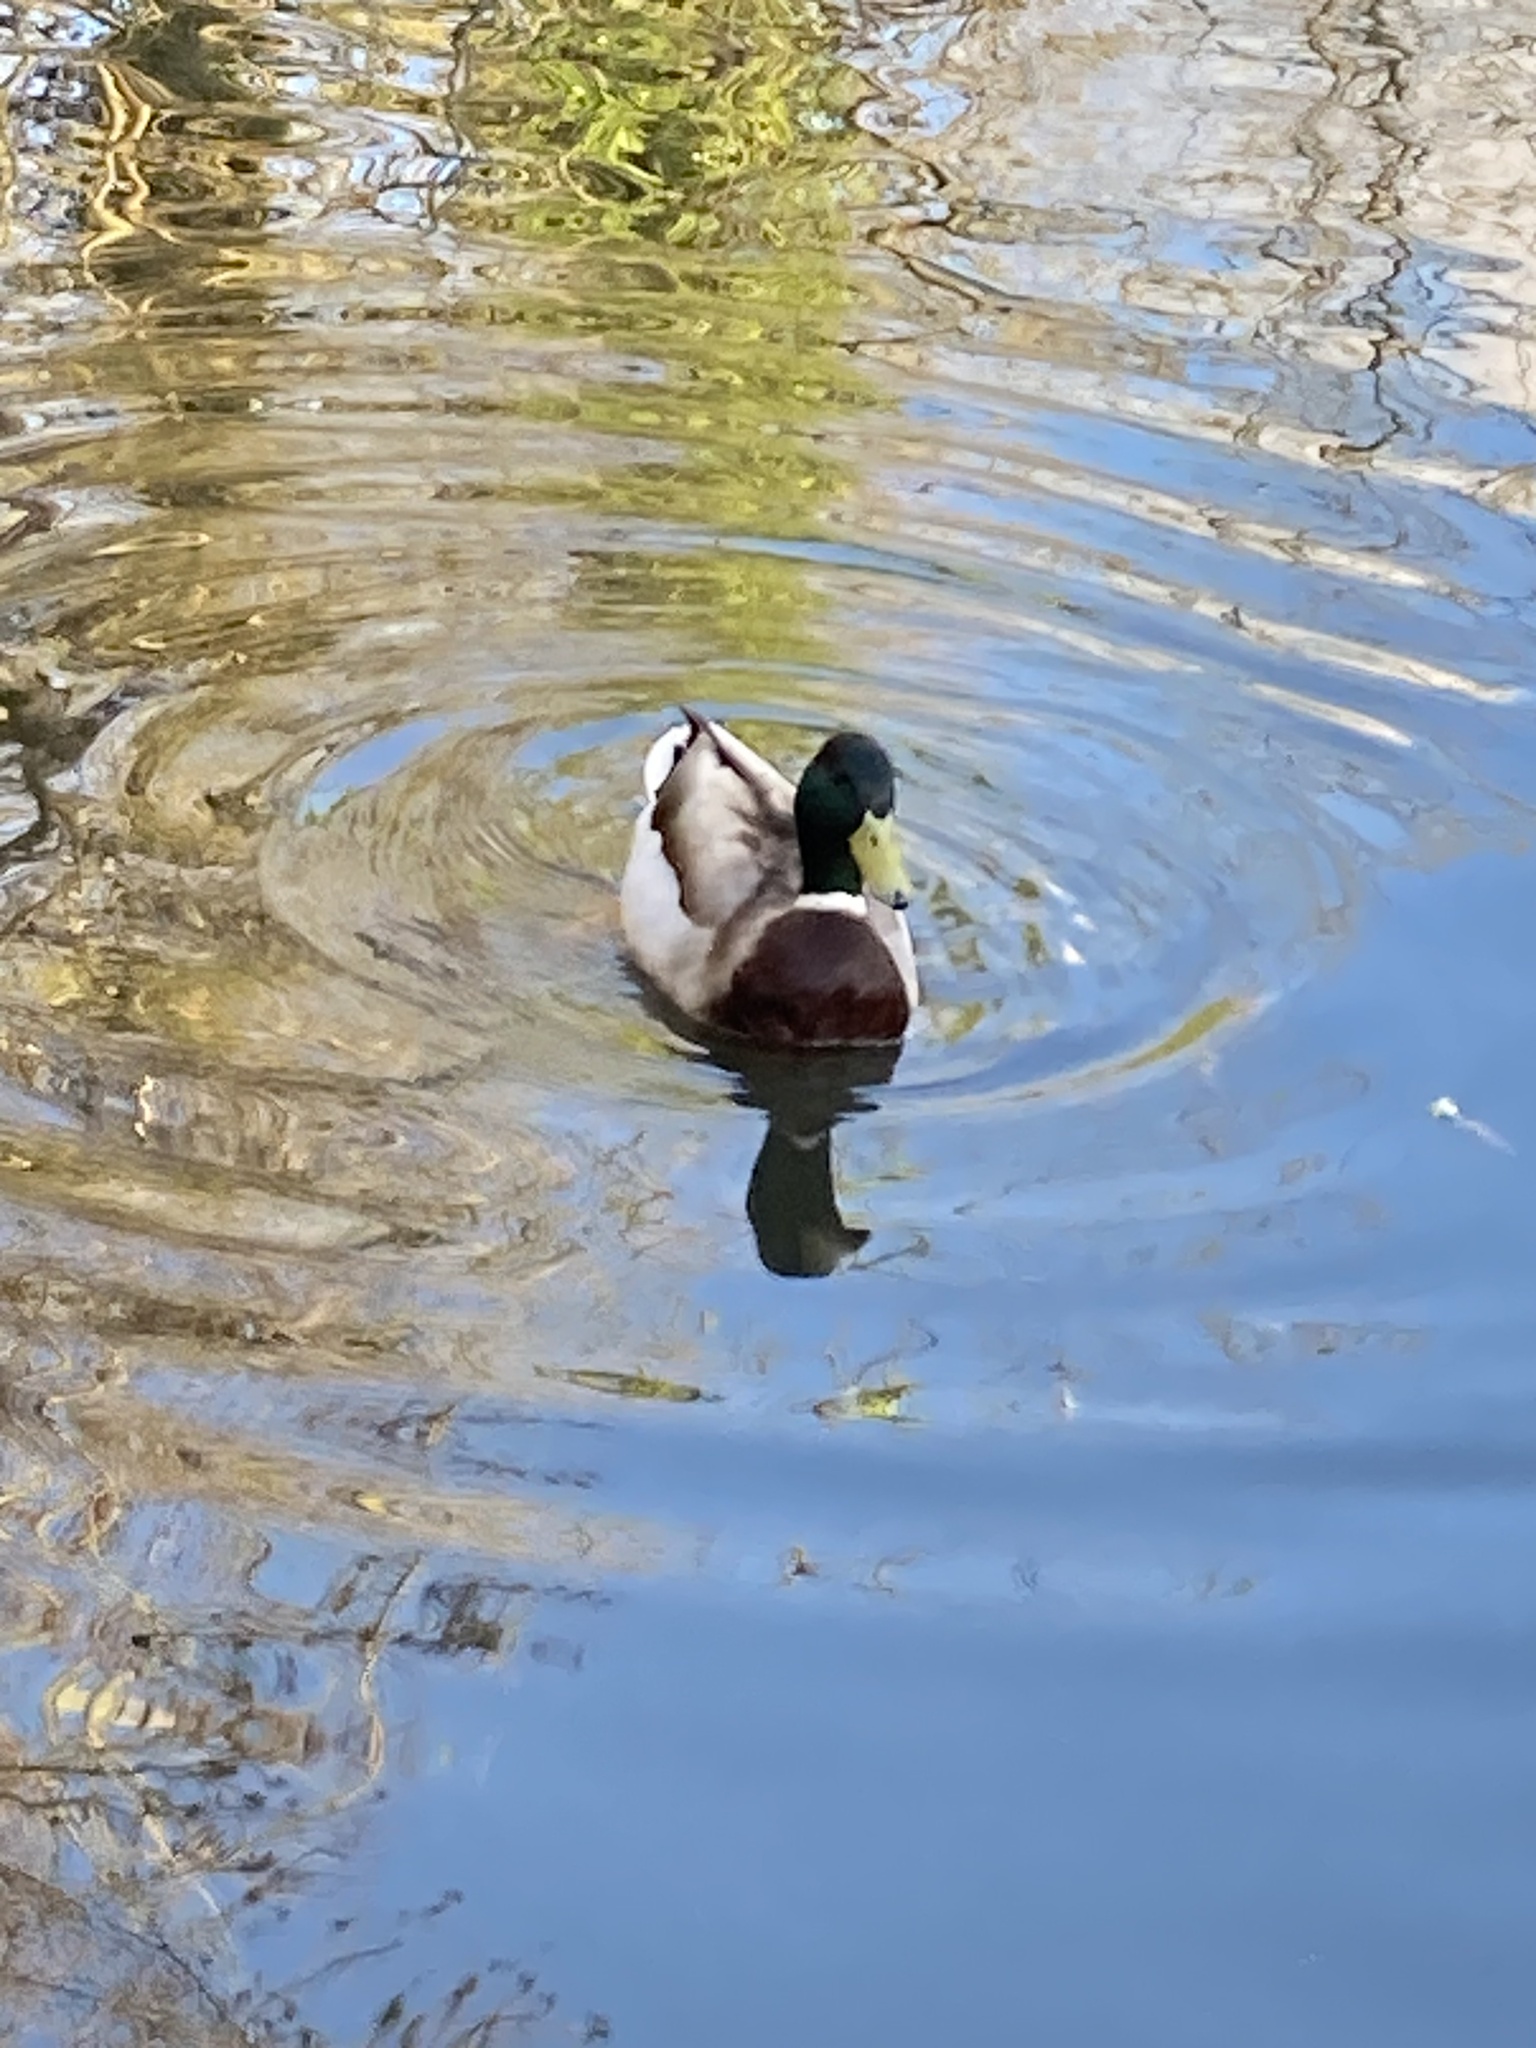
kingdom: Animalia
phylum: Chordata
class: Aves
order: Anseriformes
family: Anatidae
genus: Anas
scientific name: Anas platyrhynchos
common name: Mallard
